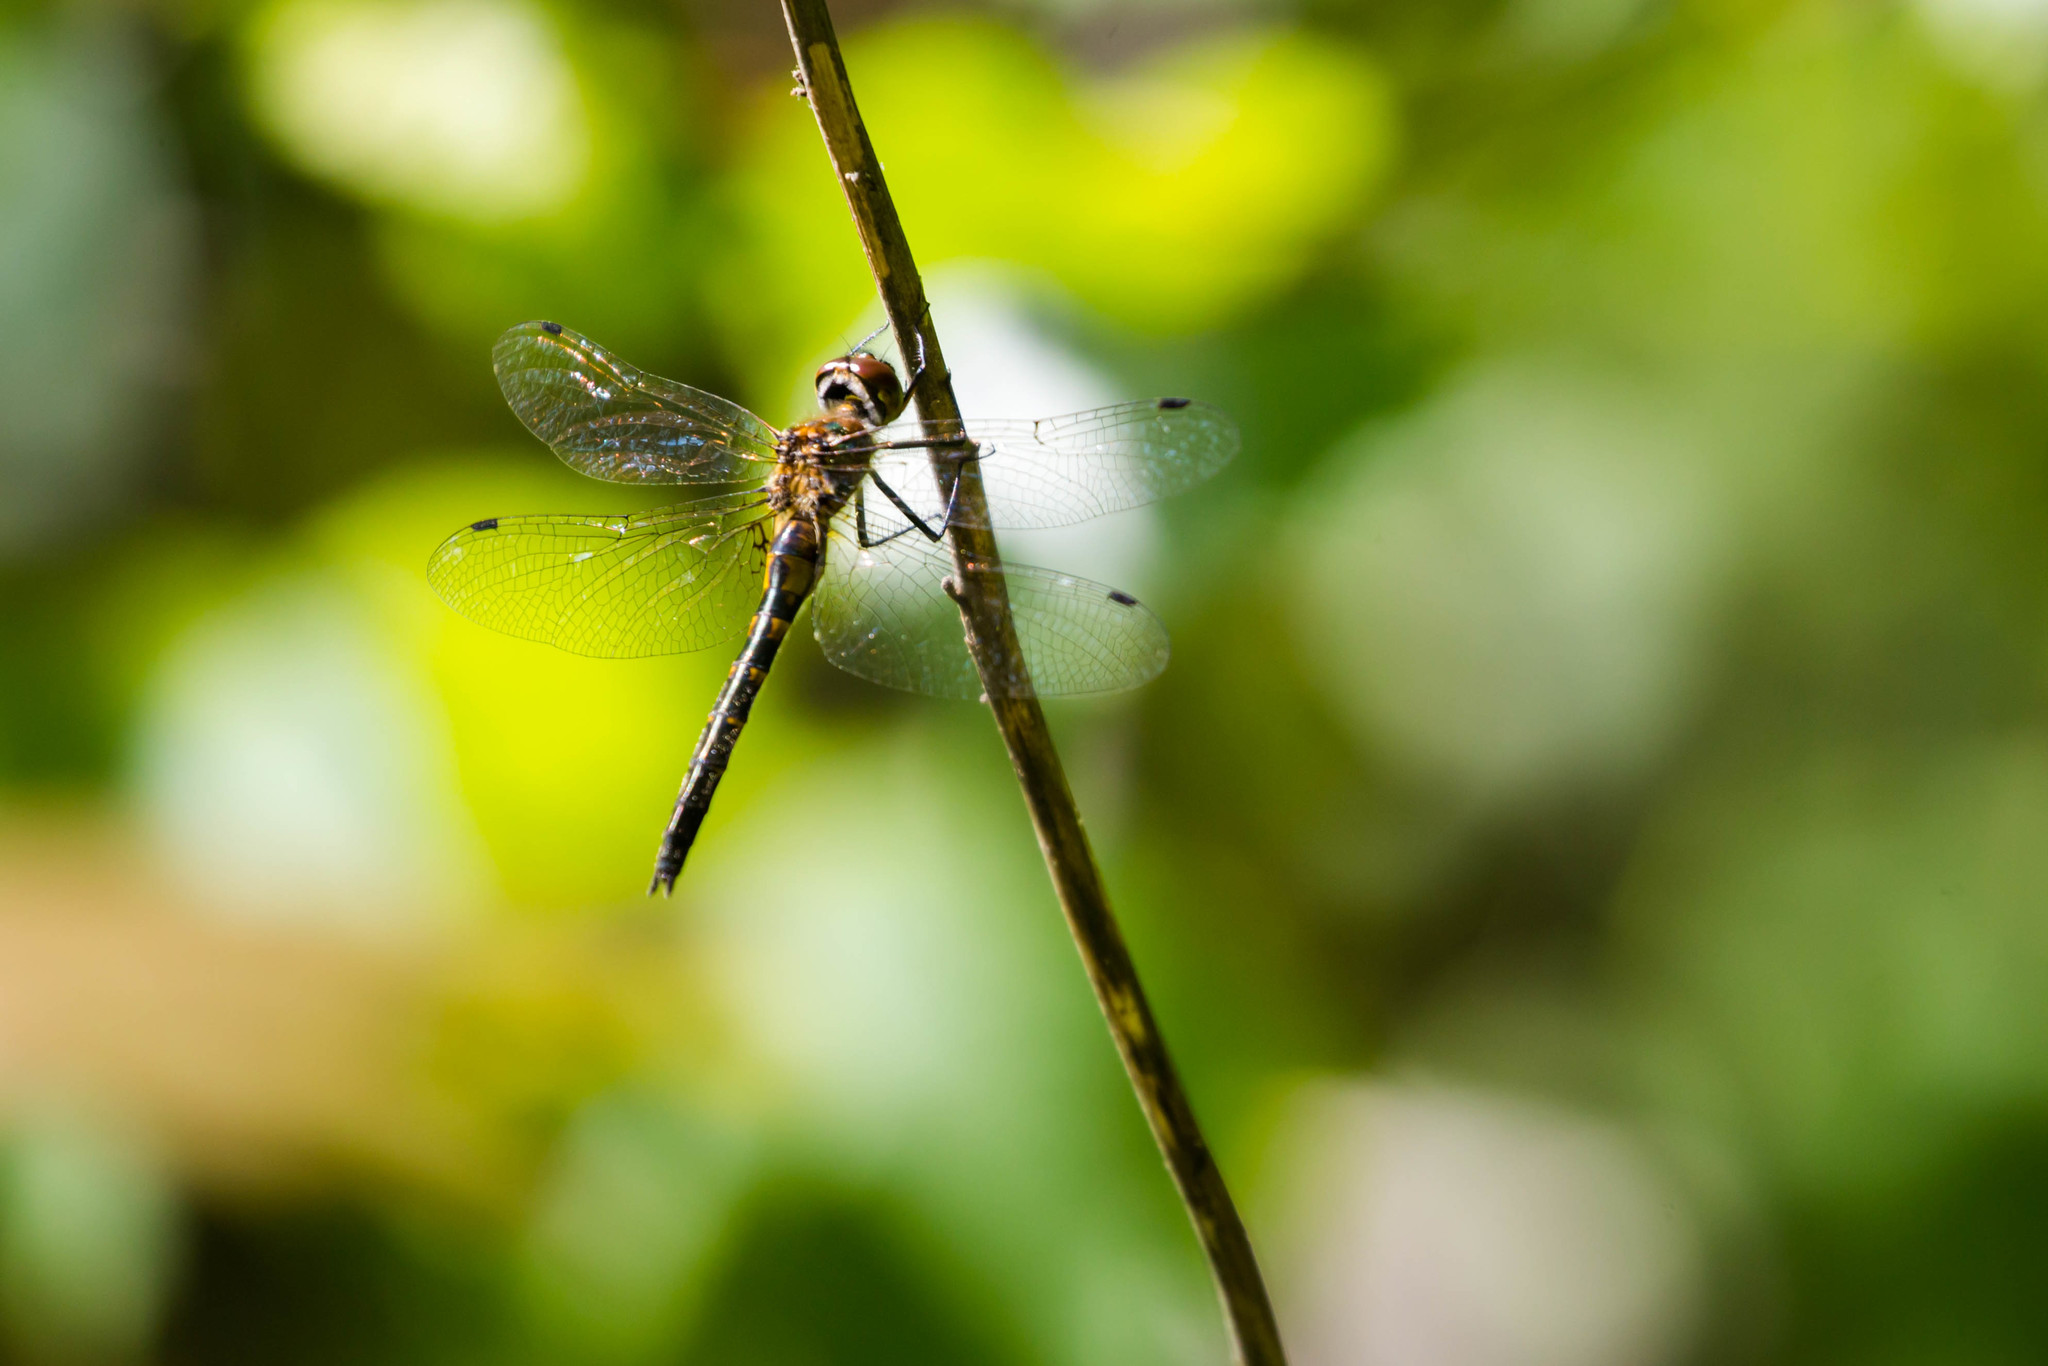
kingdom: Animalia
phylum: Arthropoda
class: Insecta
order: Odonata
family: Corduliidae
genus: Dorocordulia
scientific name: Dorocordulia lepida
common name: Petite emerald
